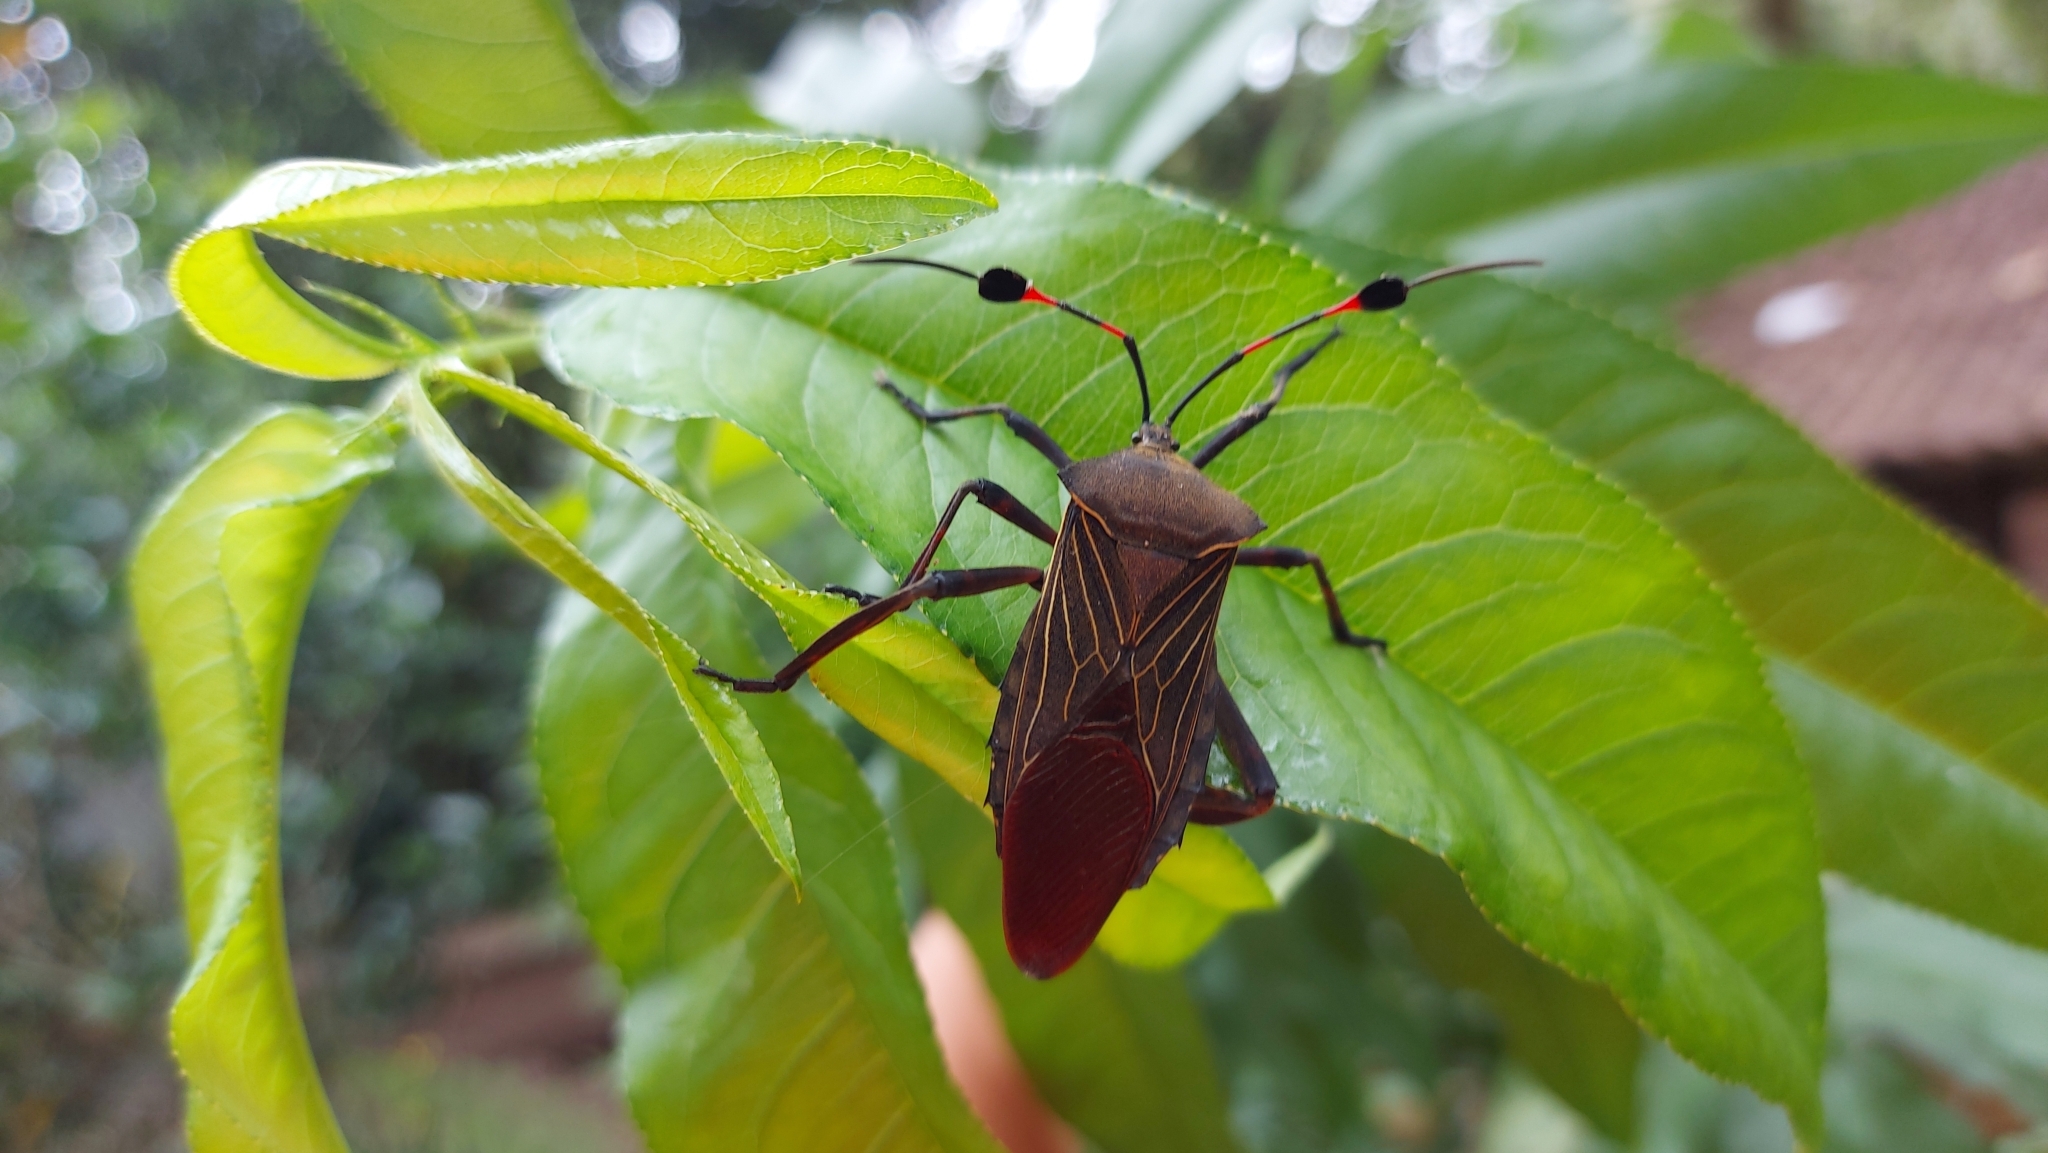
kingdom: Animalia
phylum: Arthropoda
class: Insecta
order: Hemiptera
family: Coreidae
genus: Thasus
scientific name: Thasus acutangulus
